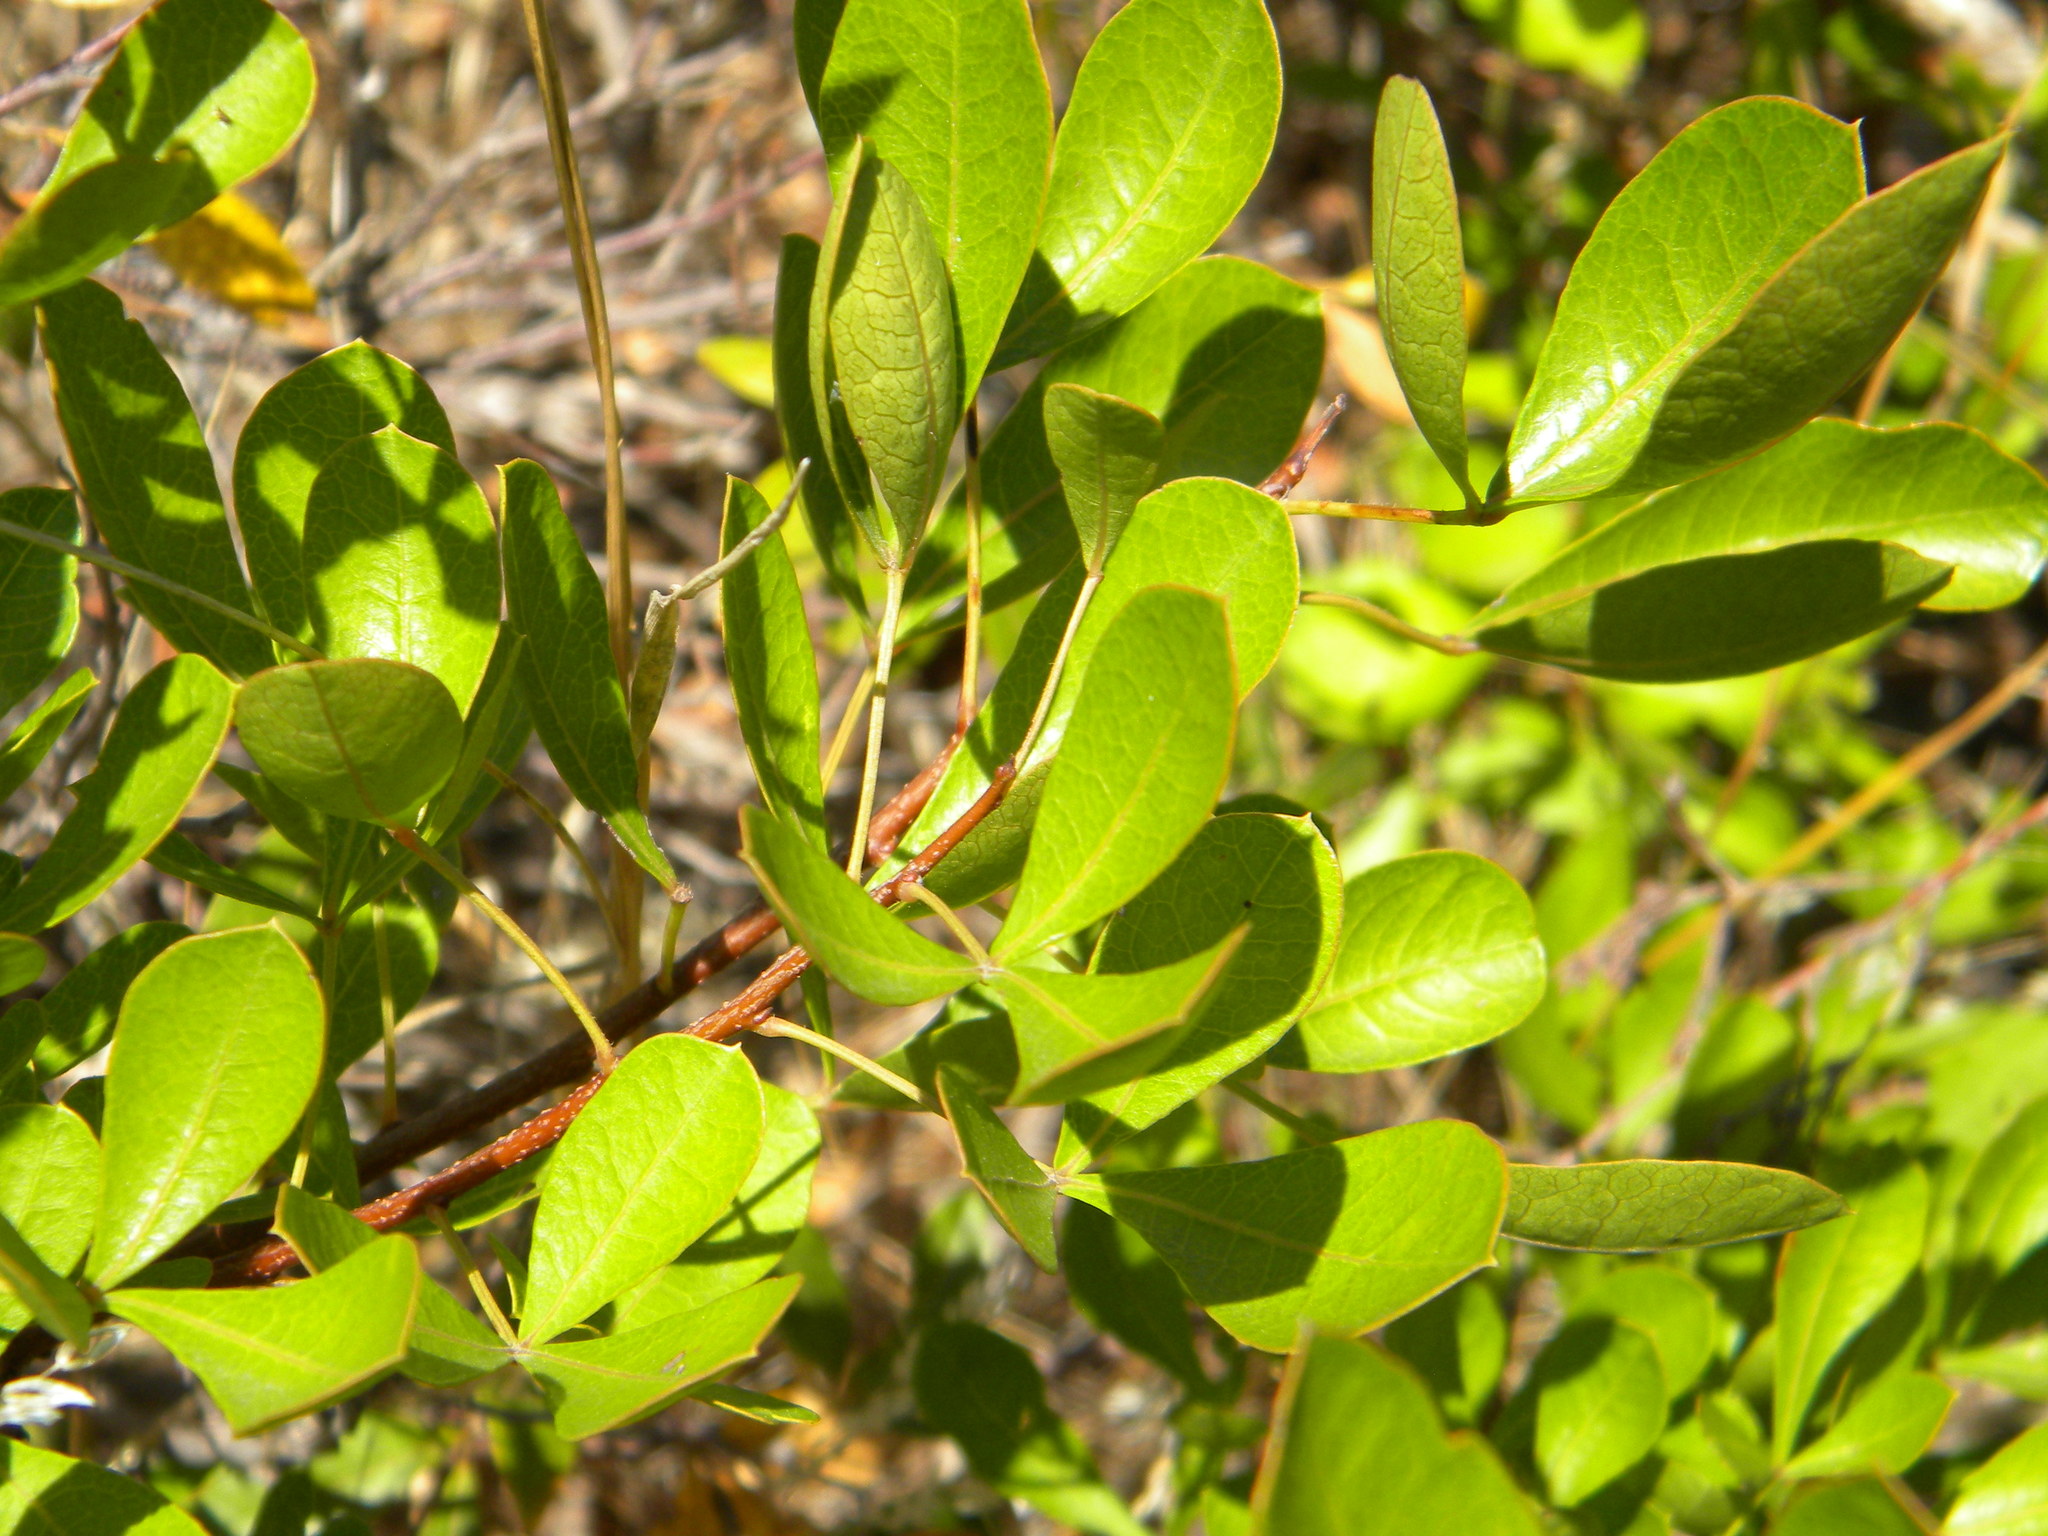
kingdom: Plantae
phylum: Tracheophyta
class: Magnoliopsida
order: Sapindales
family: Anacardiaceae
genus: Searsia
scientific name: Searsia laevigata
